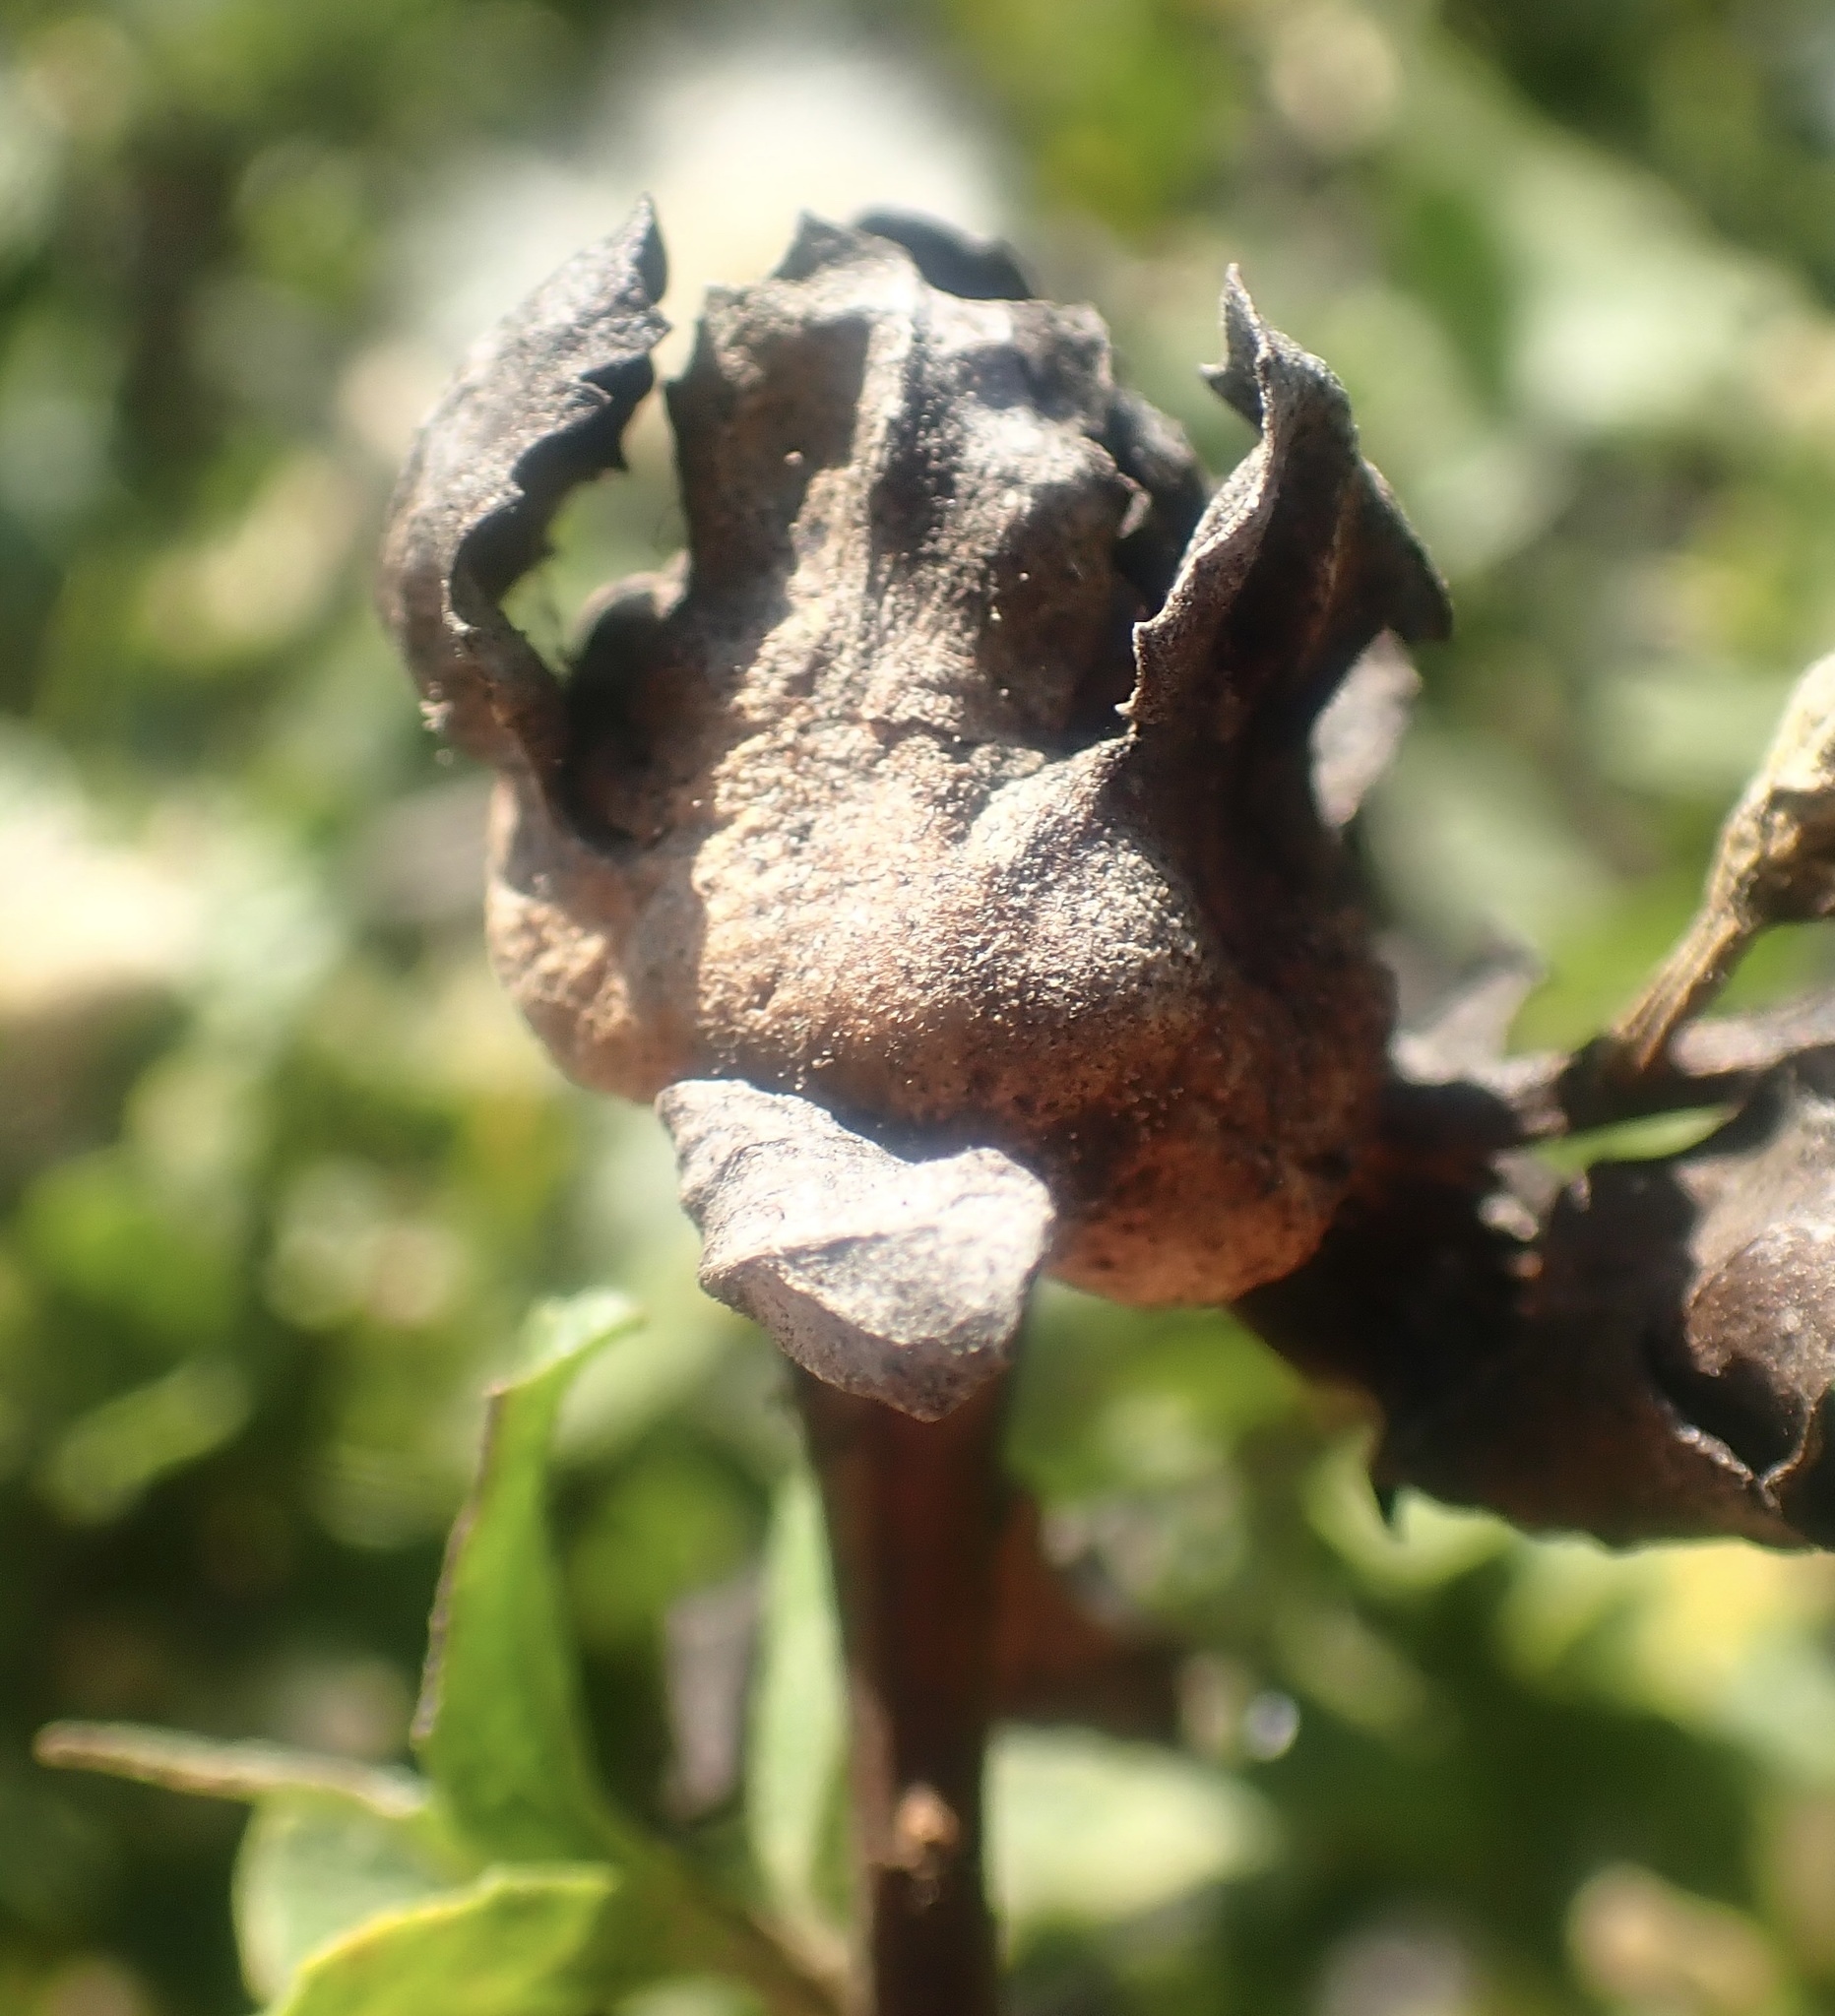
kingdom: Animalia
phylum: Arthropoda
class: Insecta
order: Diptera
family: Cecidomyiidae
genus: Rhopalomyia
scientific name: Rhopalomyia californica
